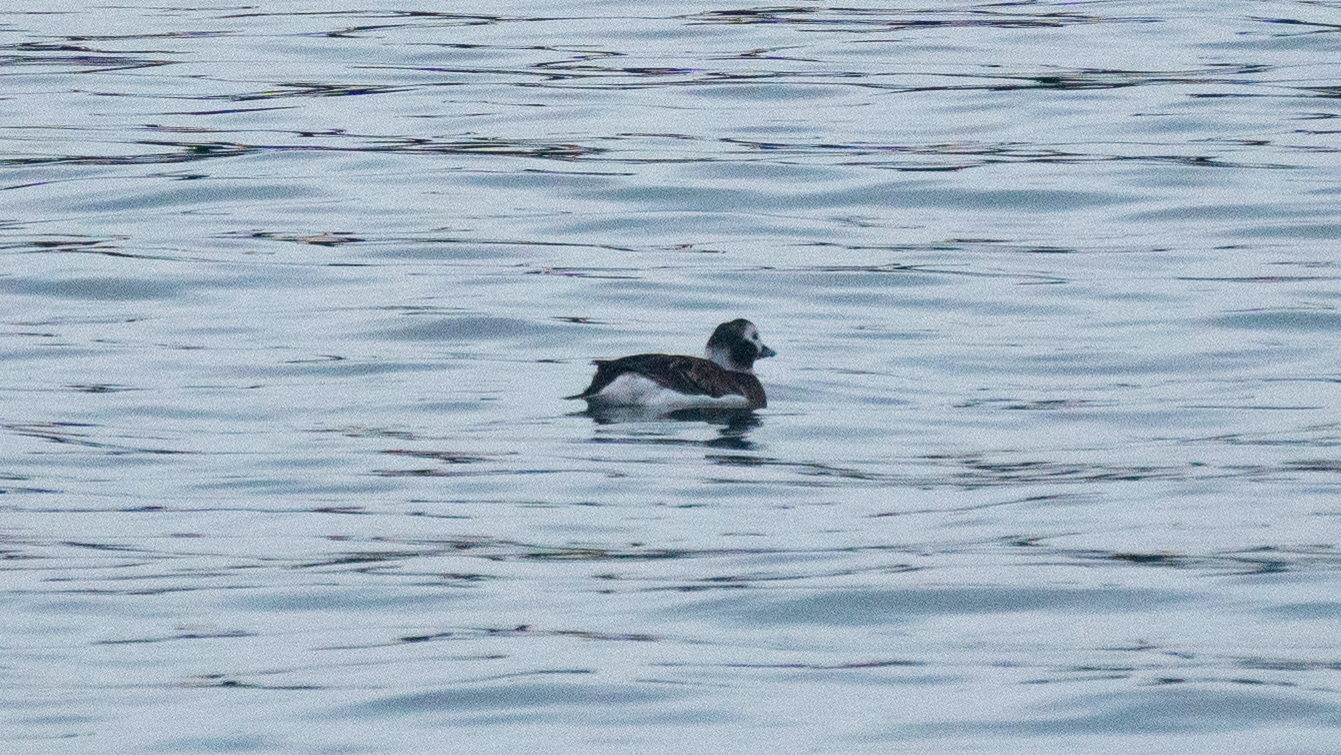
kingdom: Animalia
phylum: Chordata
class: Aves
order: Anseriformes
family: Anatidae
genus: Clangula
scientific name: Clangula hyemalis
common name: Long-tailed duck
